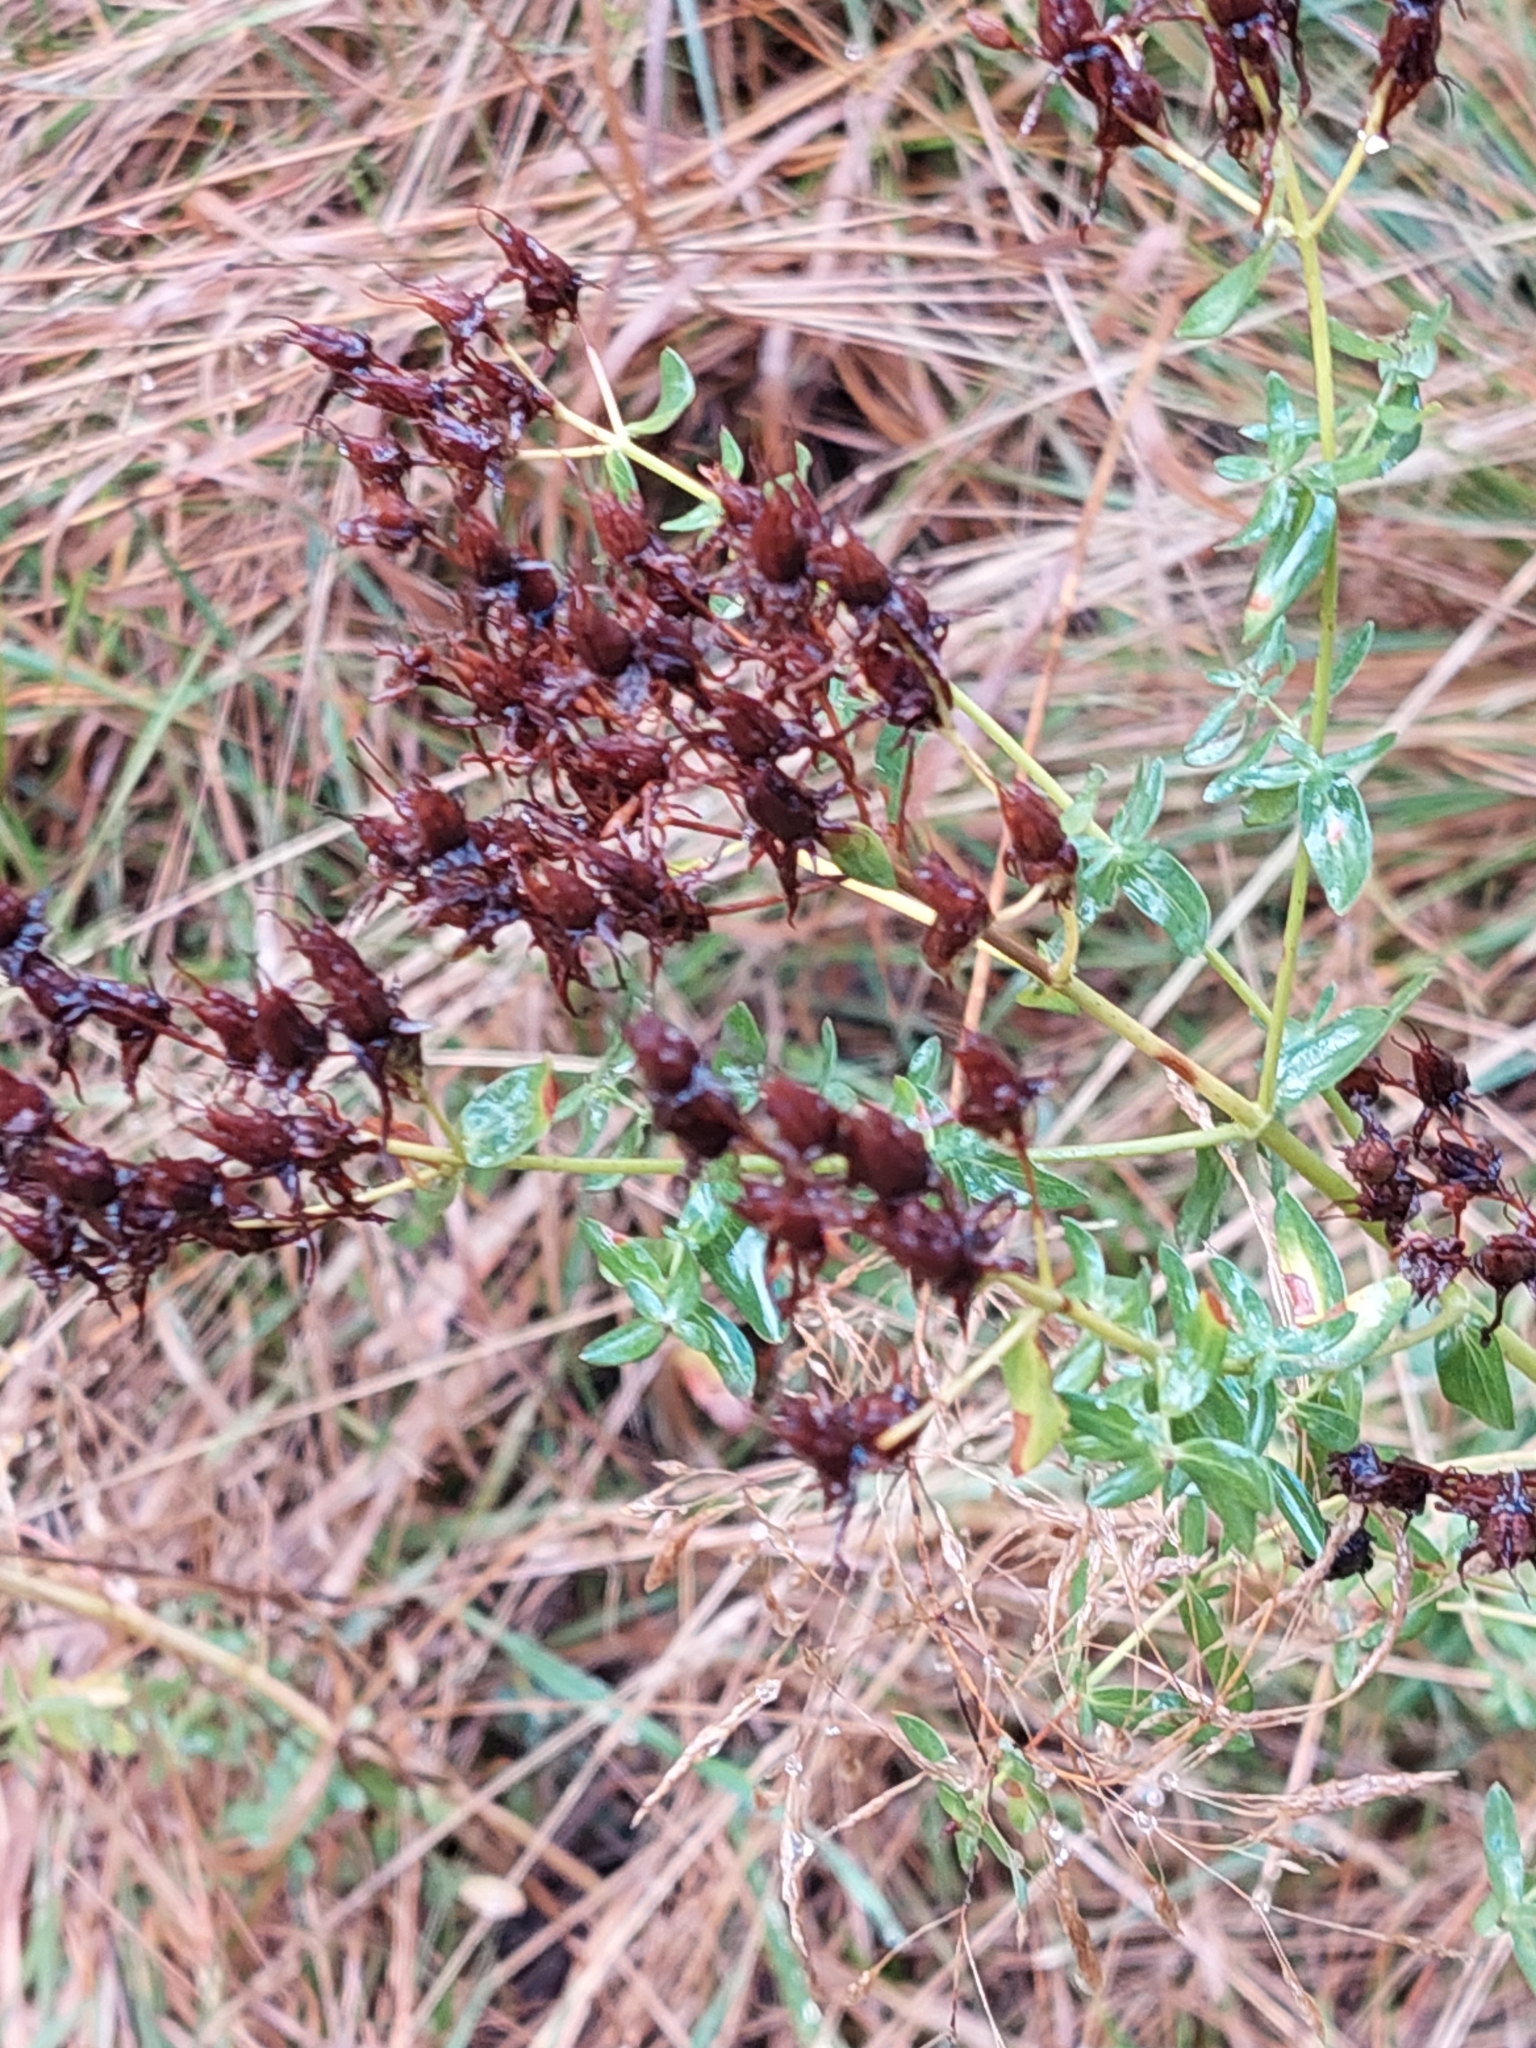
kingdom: Plantae
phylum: Tracheophyta
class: Magnoliopsida
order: Malpighiales
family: Hypericaceae
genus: Hypericum
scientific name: Hypericum perforatum
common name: Common st. johnswort
